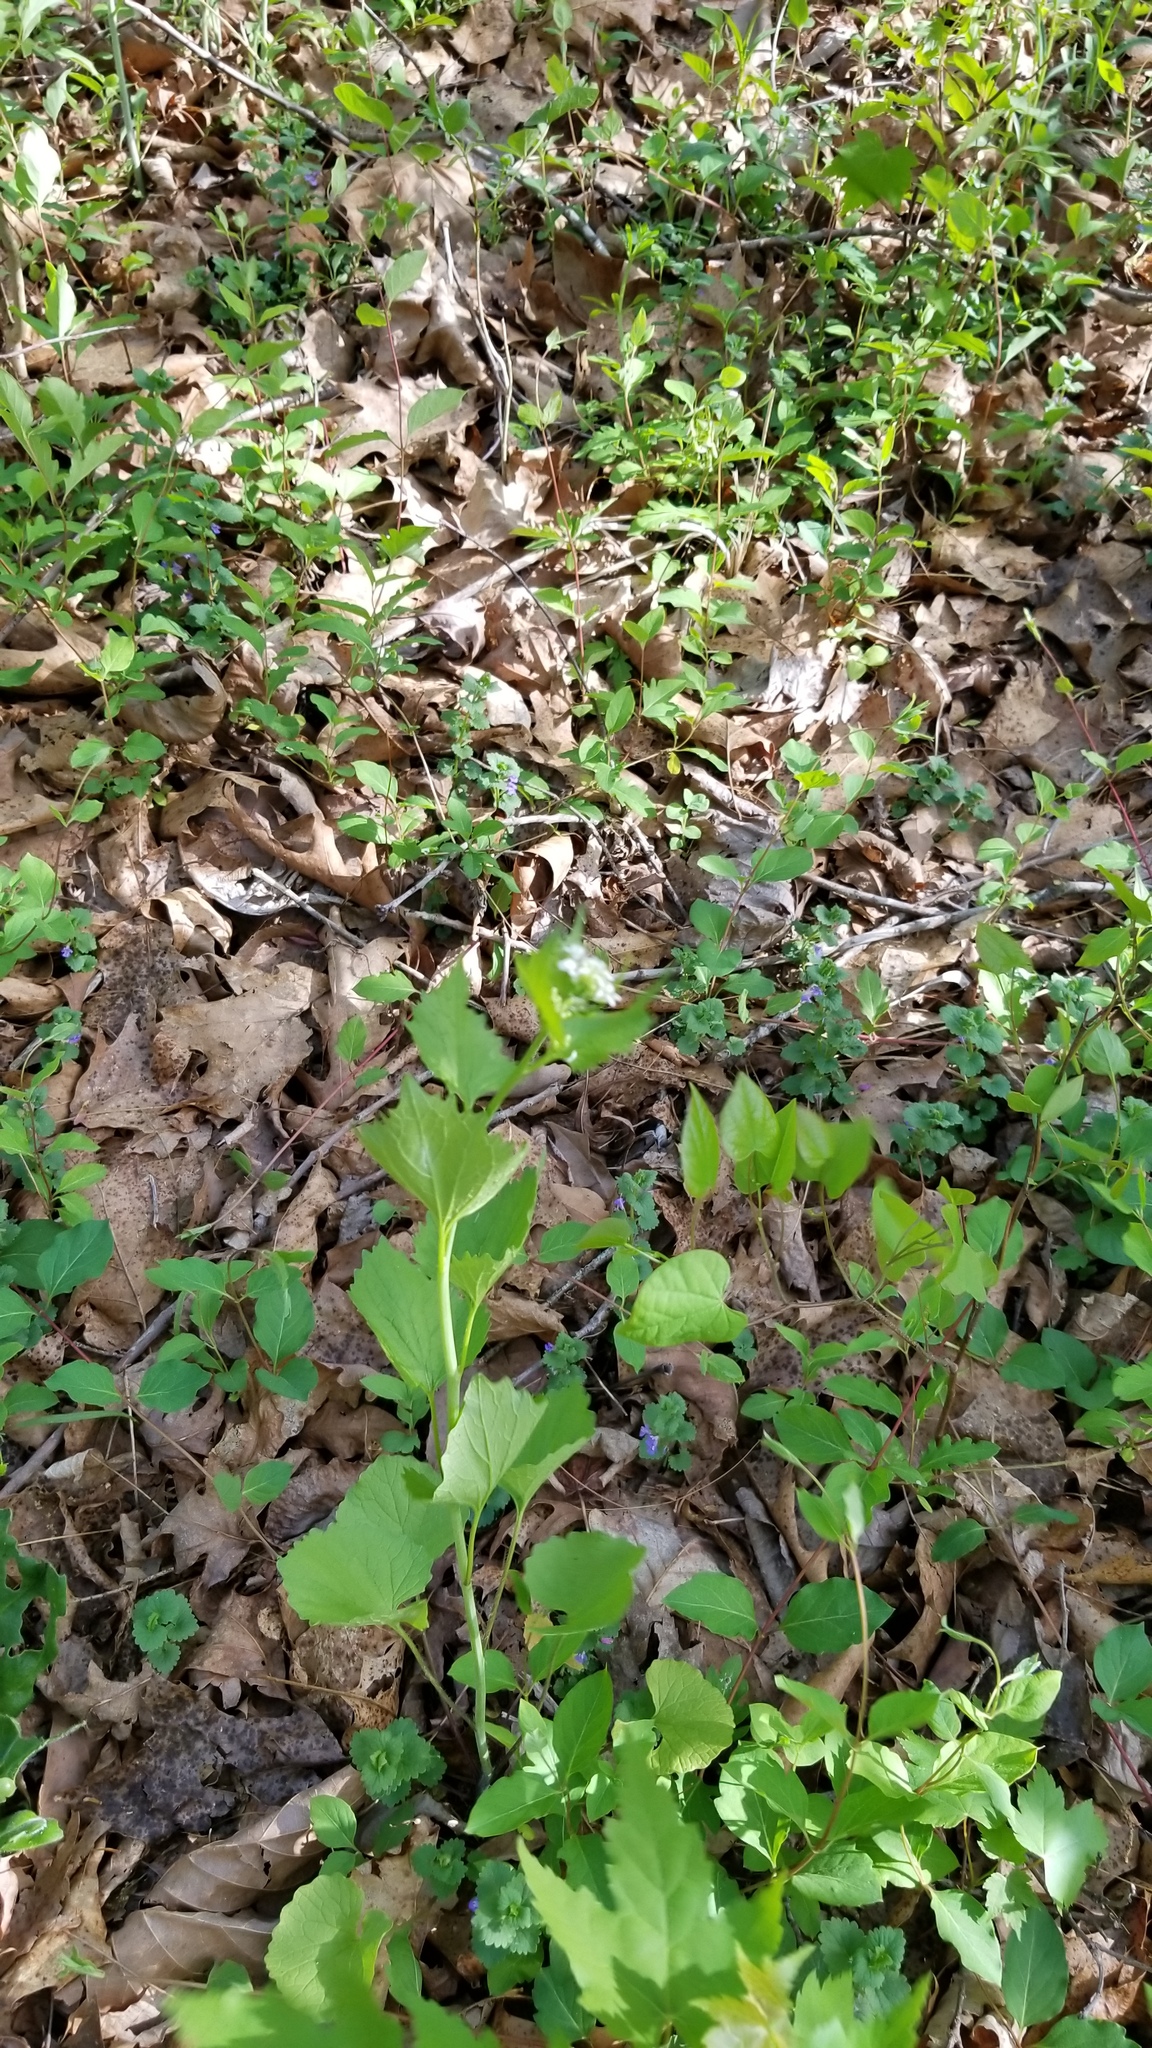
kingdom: Plantae
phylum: Tracheophyta
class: Magnoliopsida
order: Brassicales
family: Brassicaceae
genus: Alliaria
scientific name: Alliaria petiolata
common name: Garlic mustard
